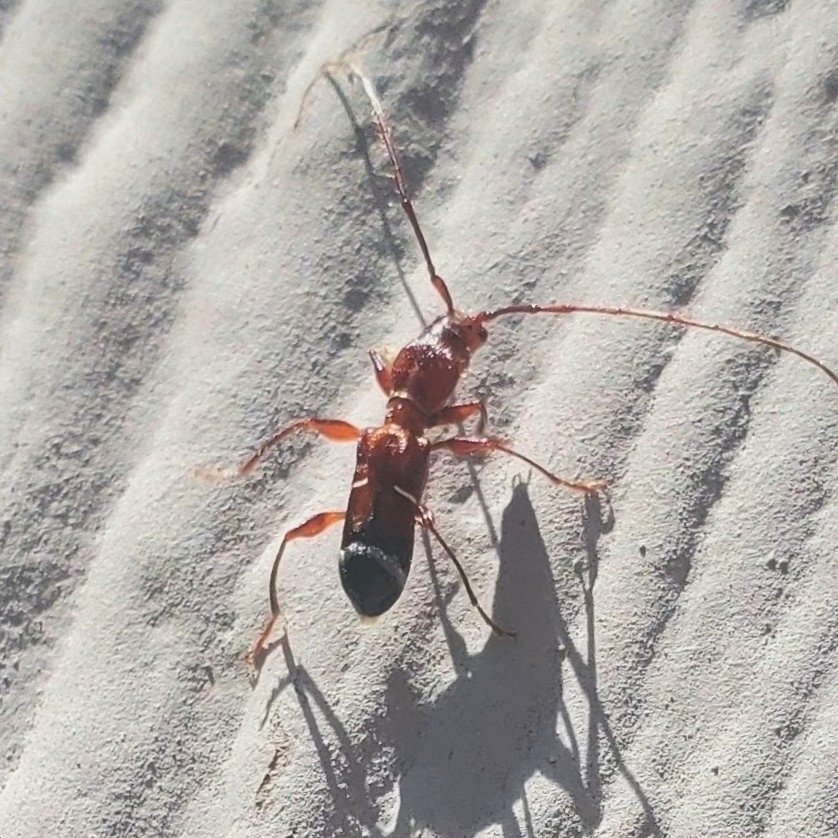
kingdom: Animalia
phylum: Arthropoda
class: Insecta
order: Coleoptera
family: Cerambycidae
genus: Euderces
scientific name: Euderces pini
